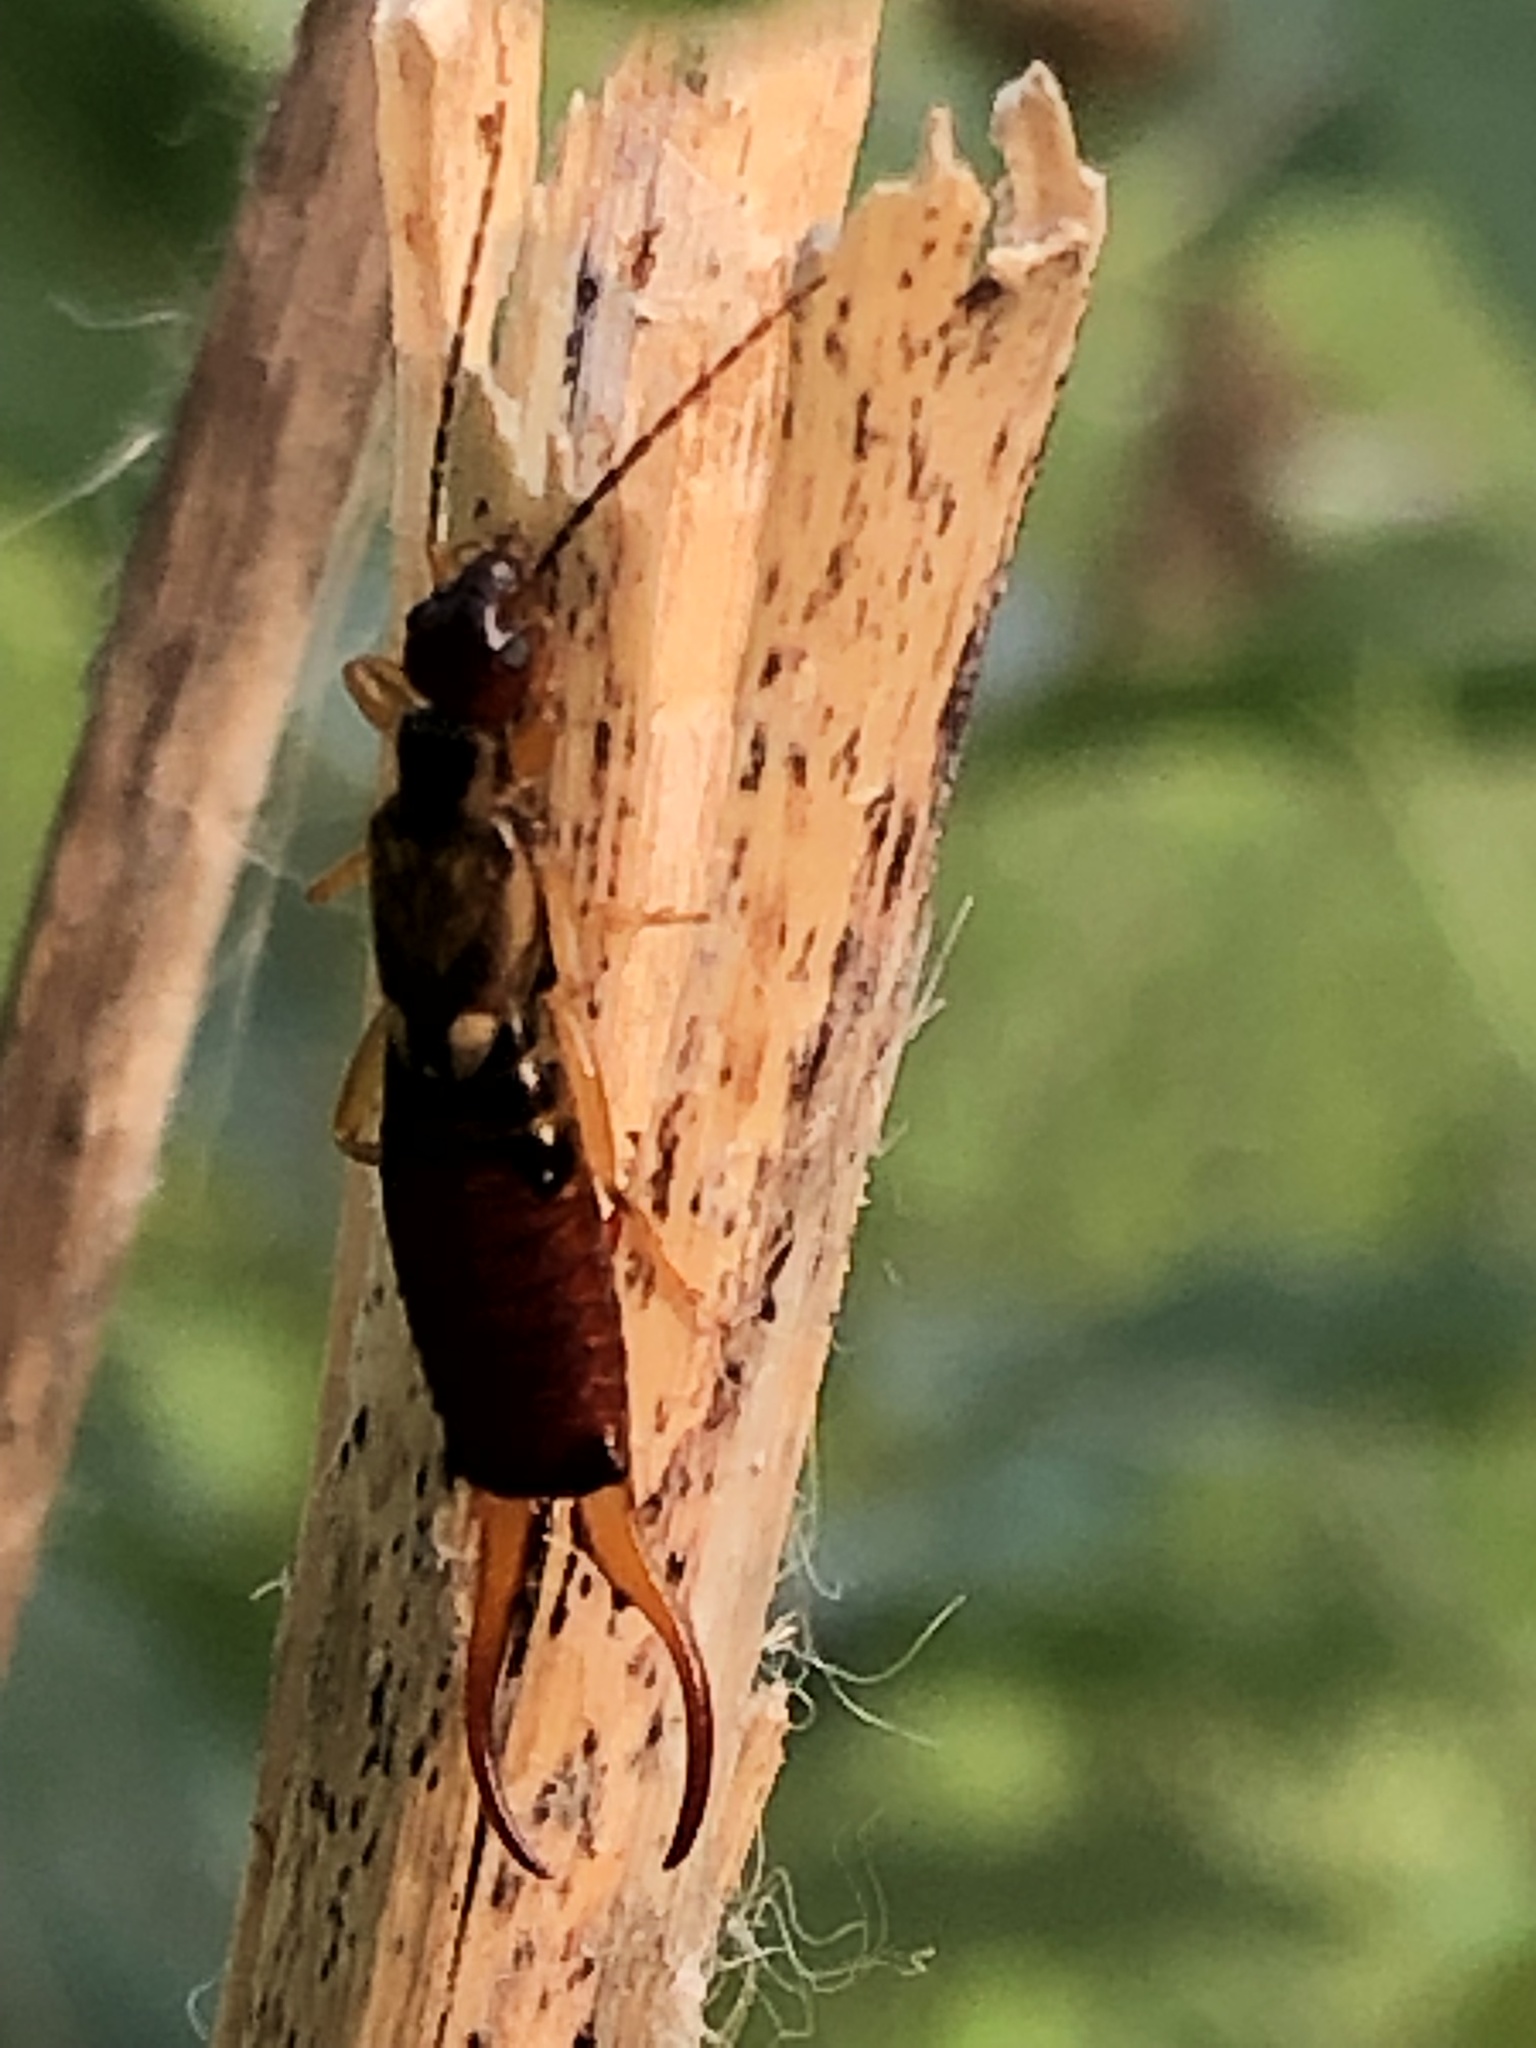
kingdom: Animalia
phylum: Arthropoda
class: Insecta
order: Dermaptera
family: Forficulidae
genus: Forficula
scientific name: Forficula
